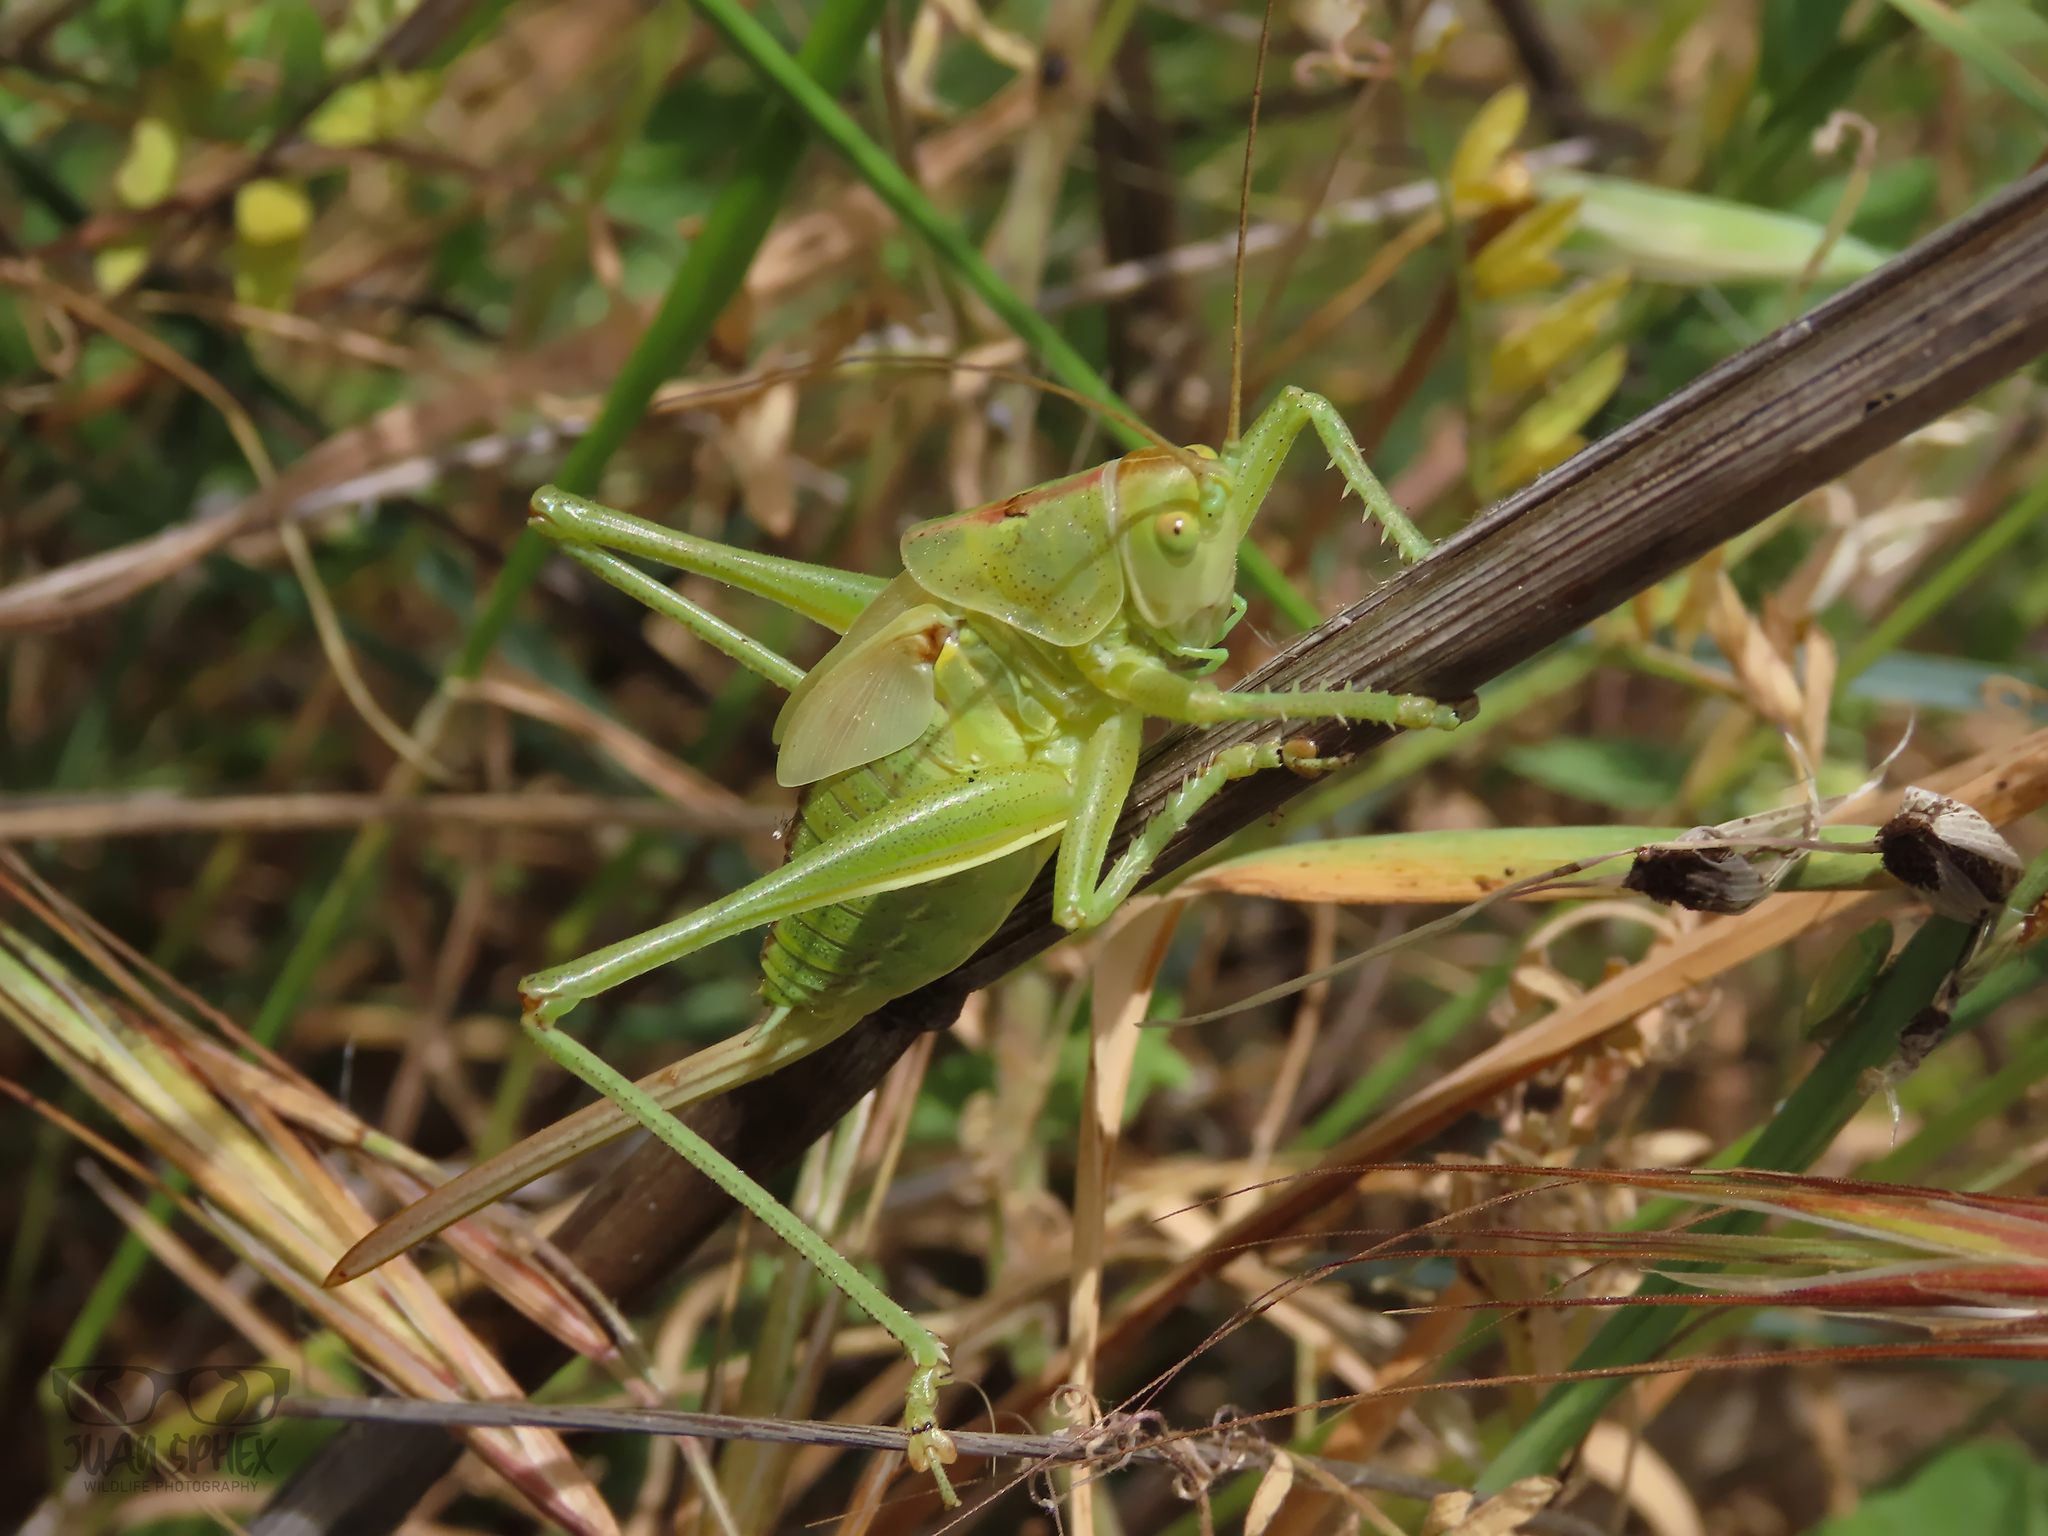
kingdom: Animalia
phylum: Arthropoda
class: Insecta
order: Orthoptera
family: Tettigoniidae
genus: Tettigonia
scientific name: Tettigonia viridissima
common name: Great green bush-cricket
